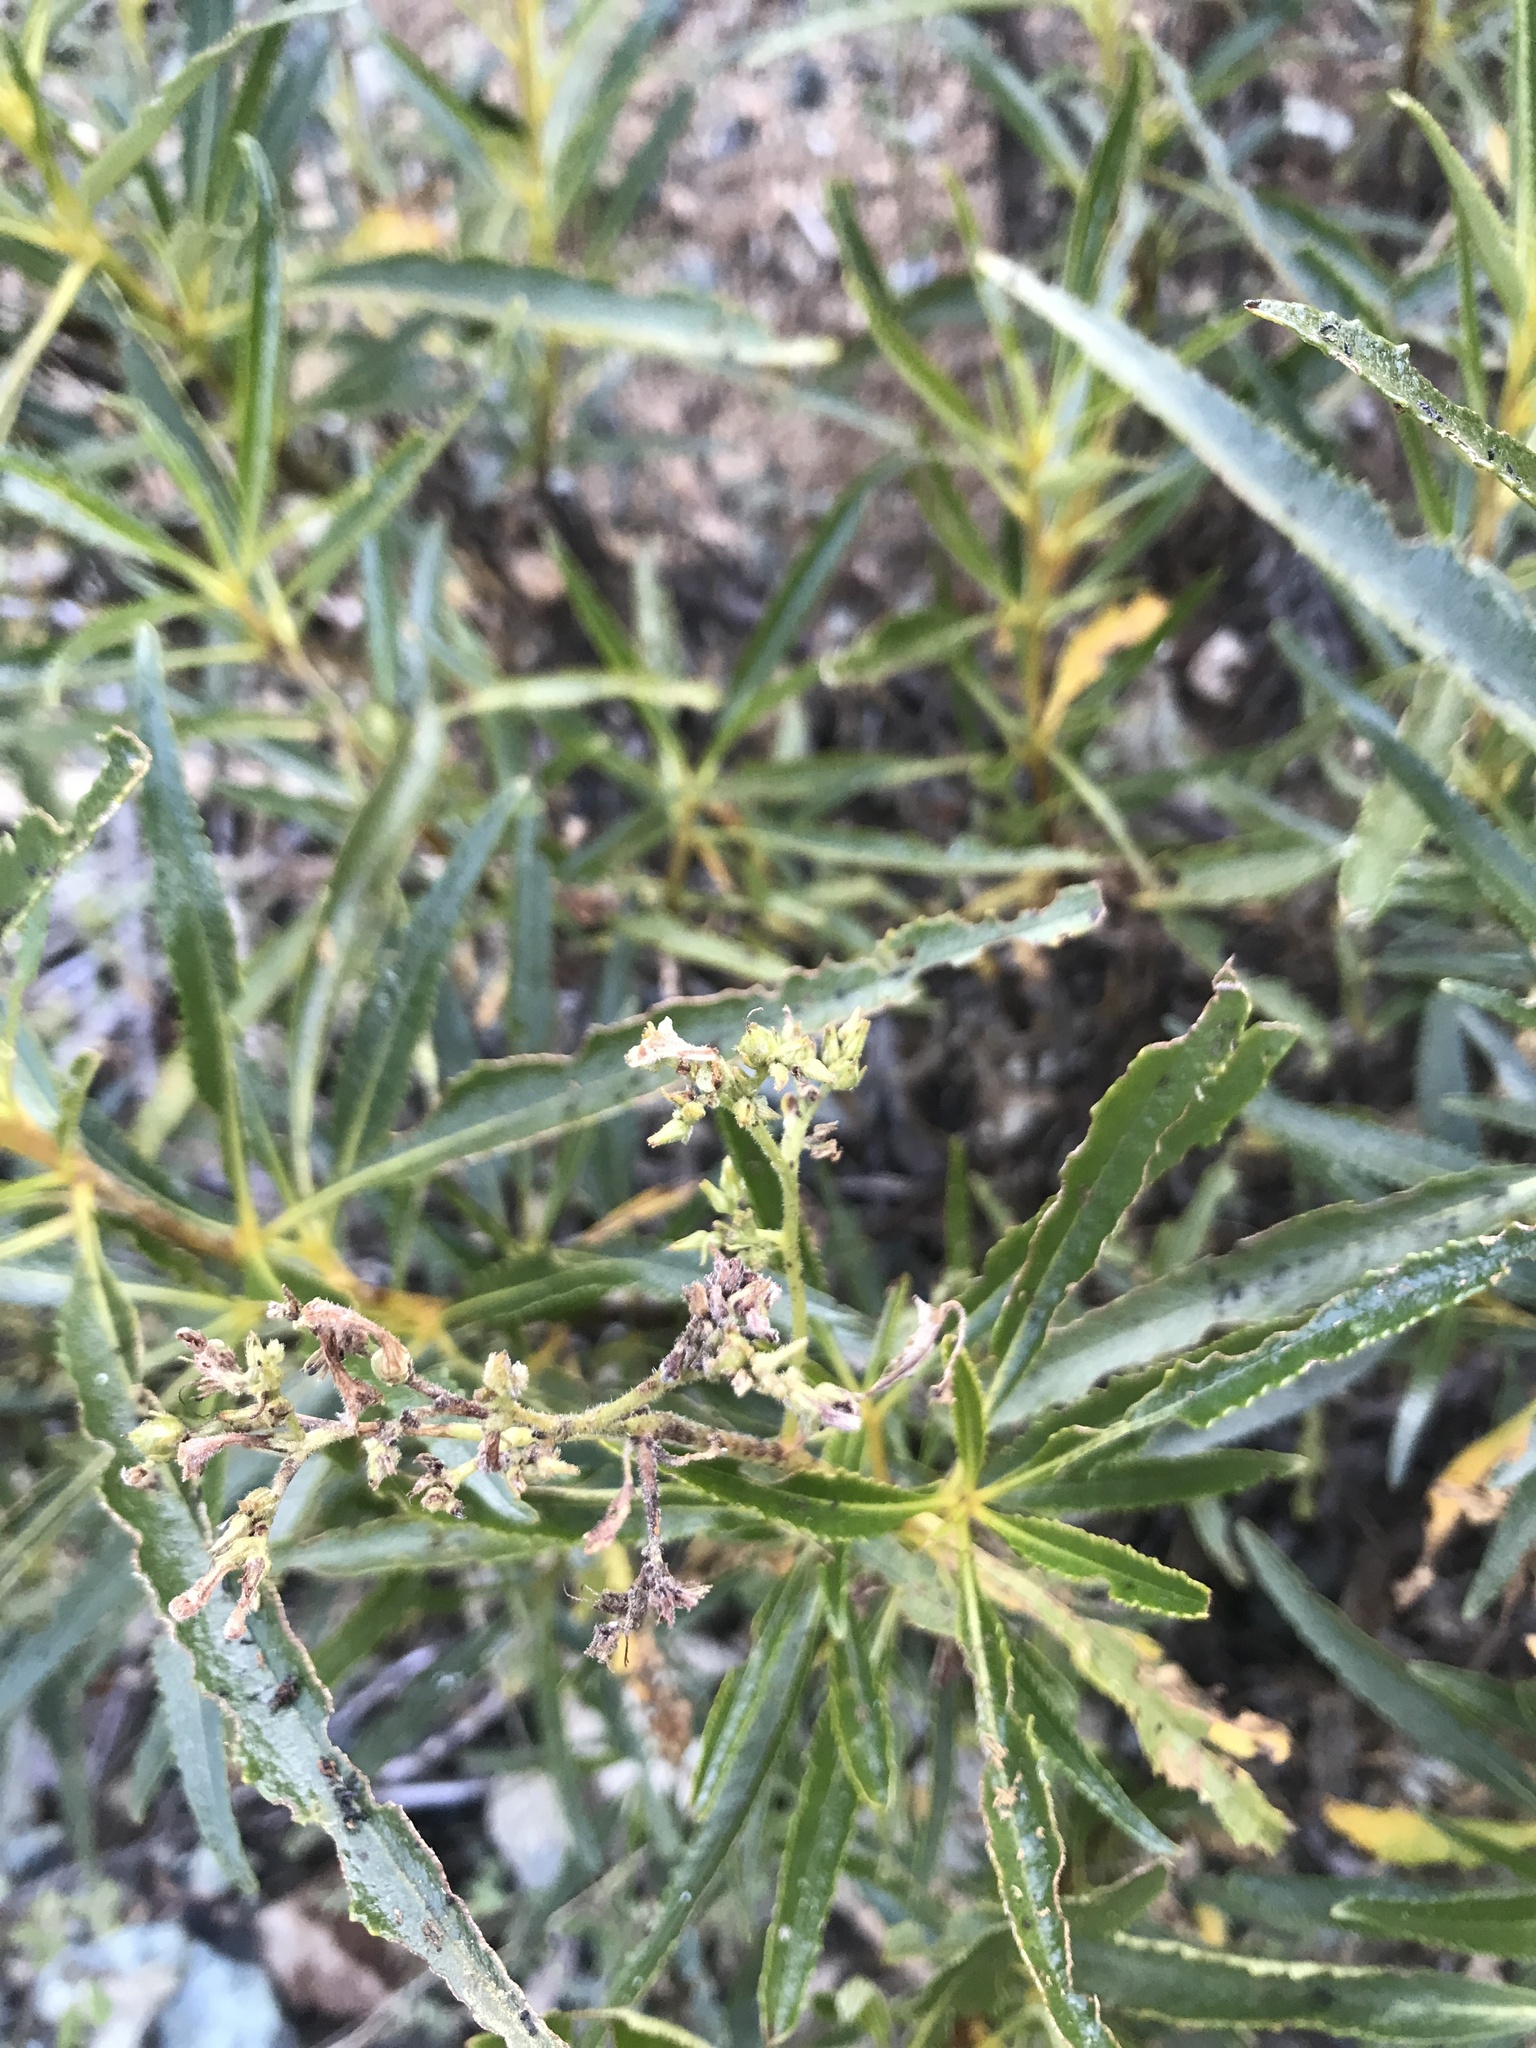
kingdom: Plantae
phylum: Tracheophyta
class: Magnoliopsida
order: Boraginales
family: Namaceae
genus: Eriodictyon
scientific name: Eriodictyon californicum
